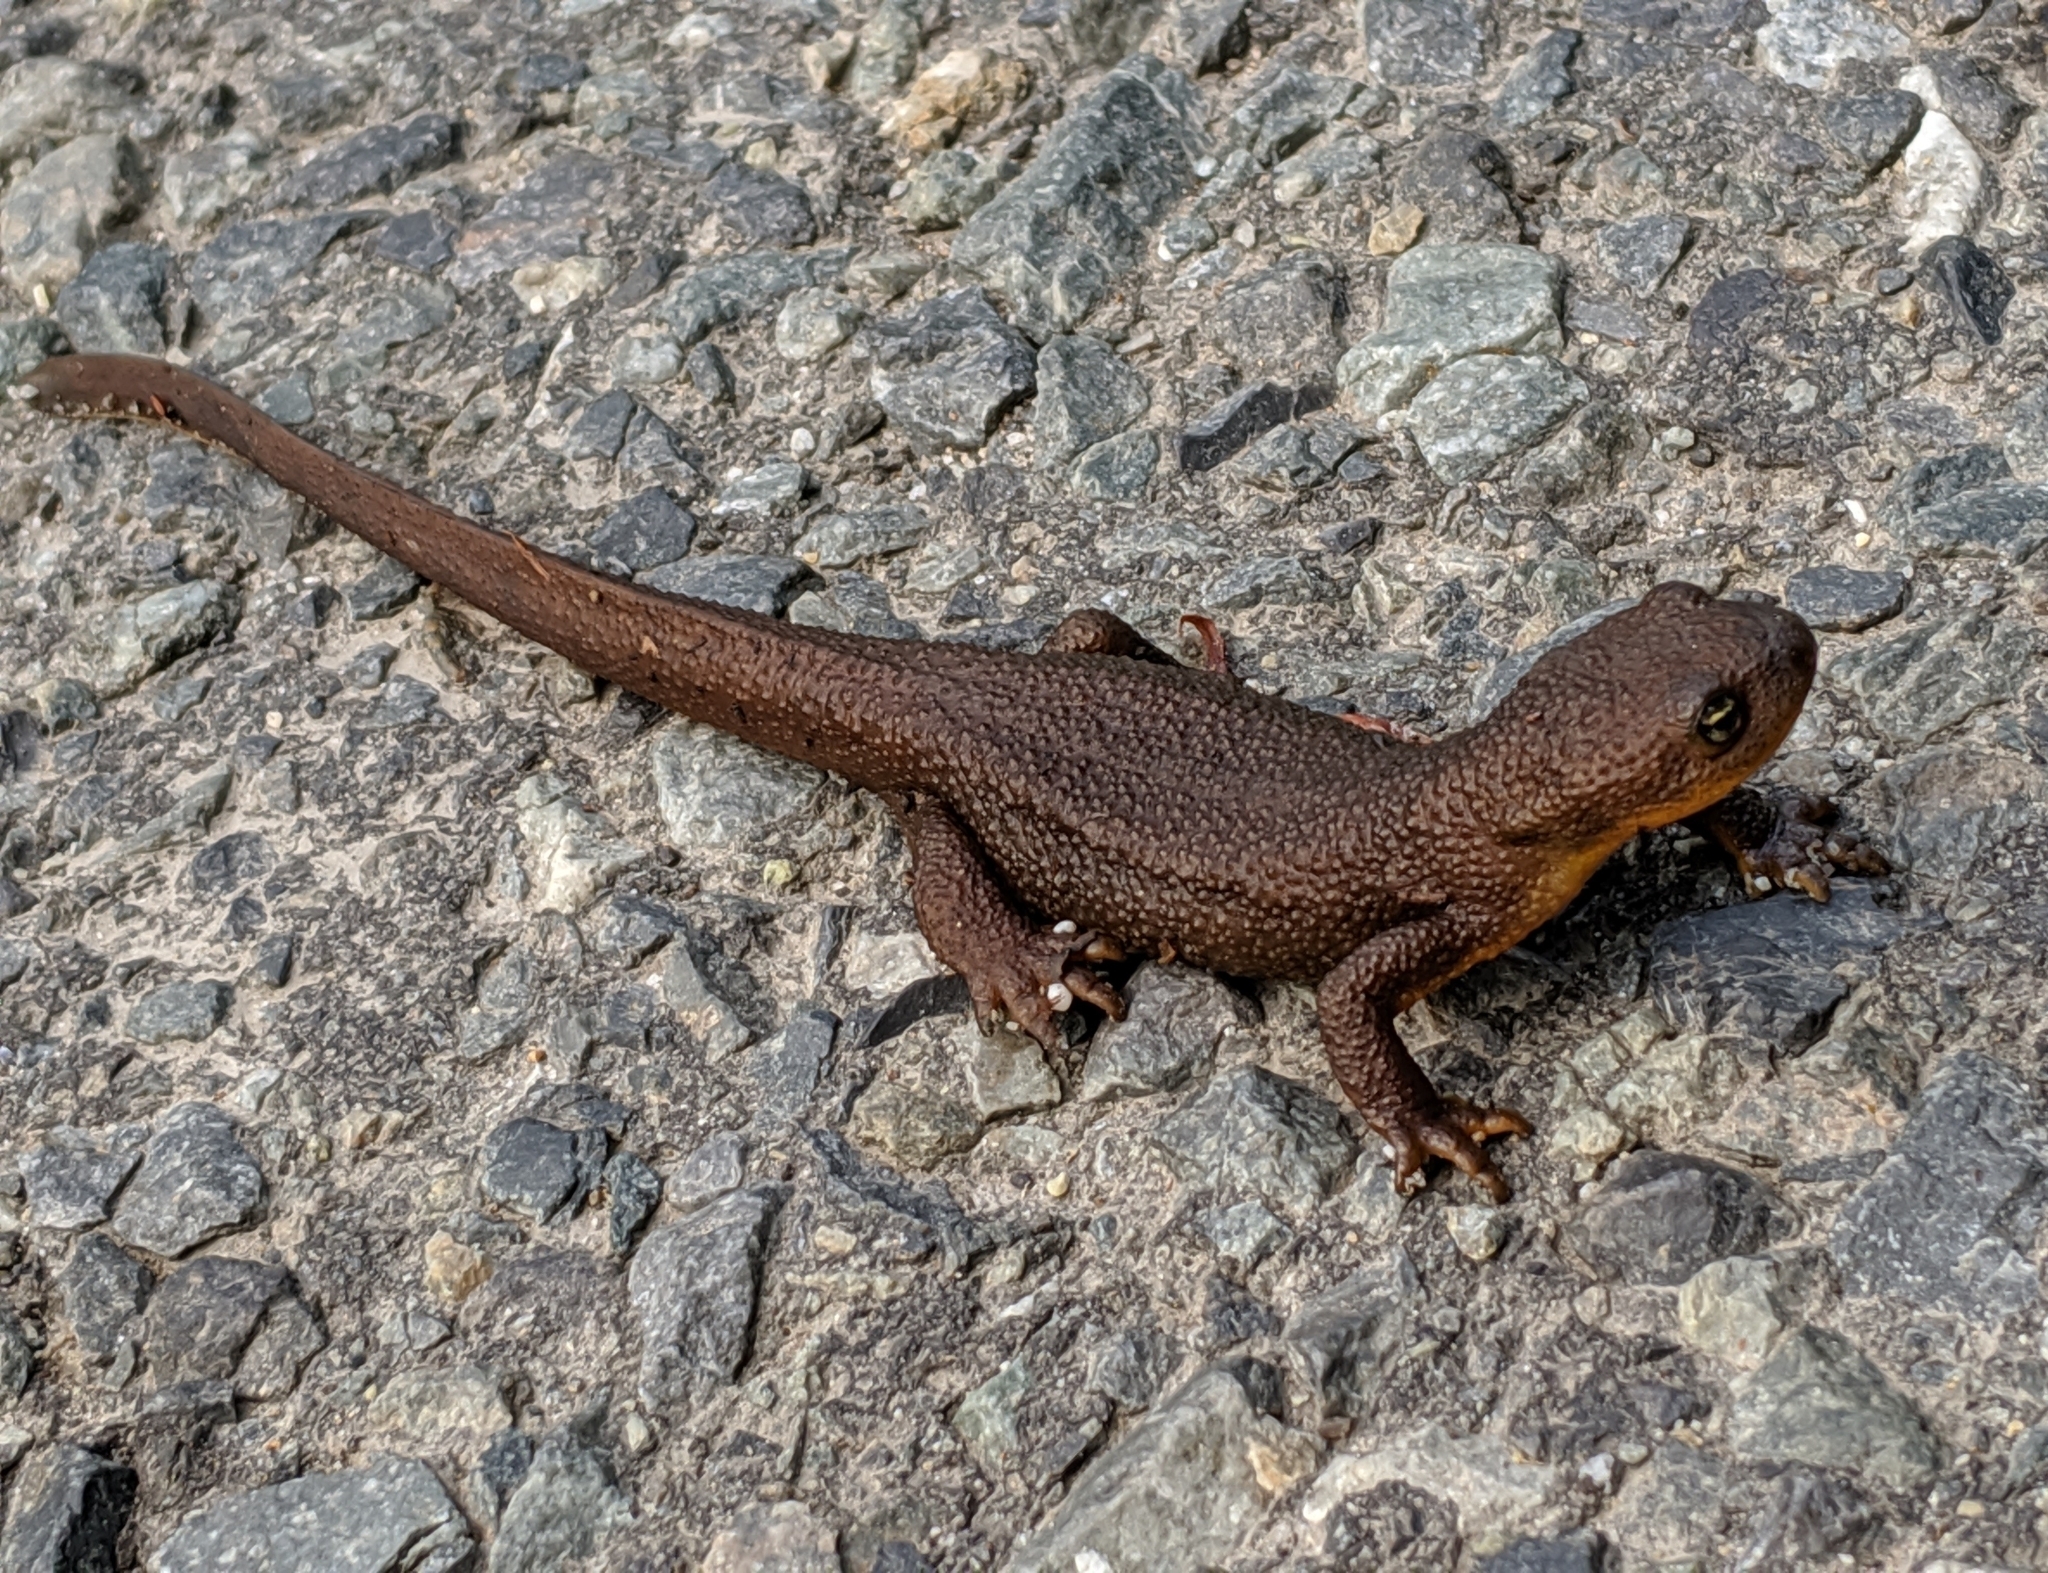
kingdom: Animalia
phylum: Chordata
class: Amphibia
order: Caudata
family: Salamandridae
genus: Taricha
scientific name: Taricha granulosa
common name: Roughskin newt
